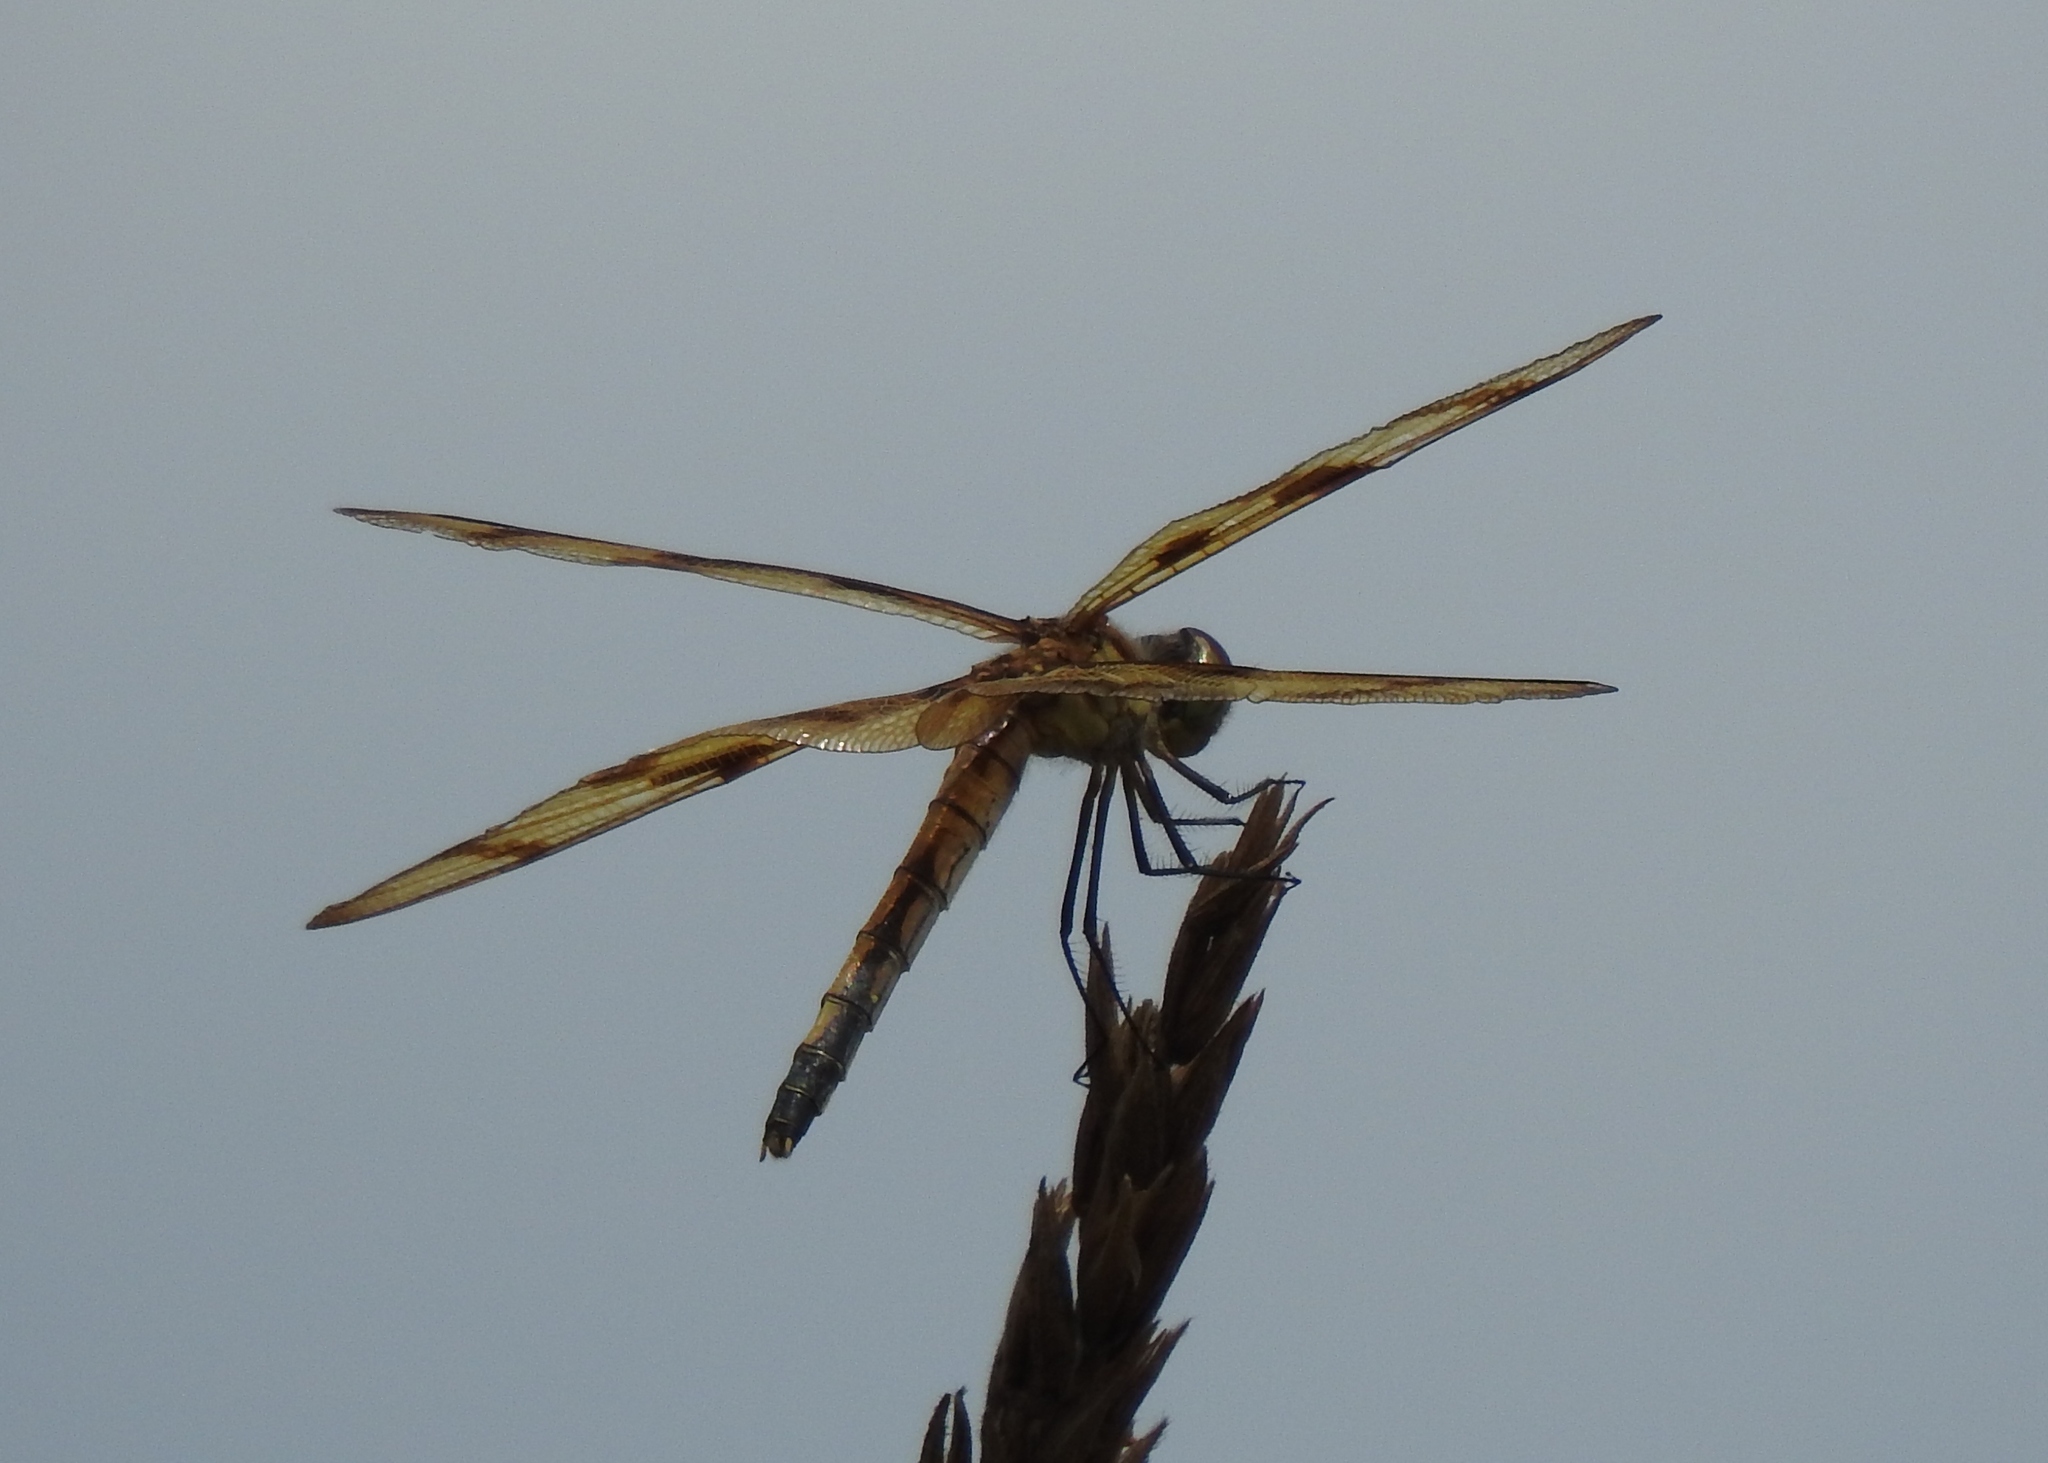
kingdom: Animalia
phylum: Arthropoda
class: Insecta
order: Odonata
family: Libellulidae
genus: Celithemis
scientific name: Celithemis eponina
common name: Halloween pennant
